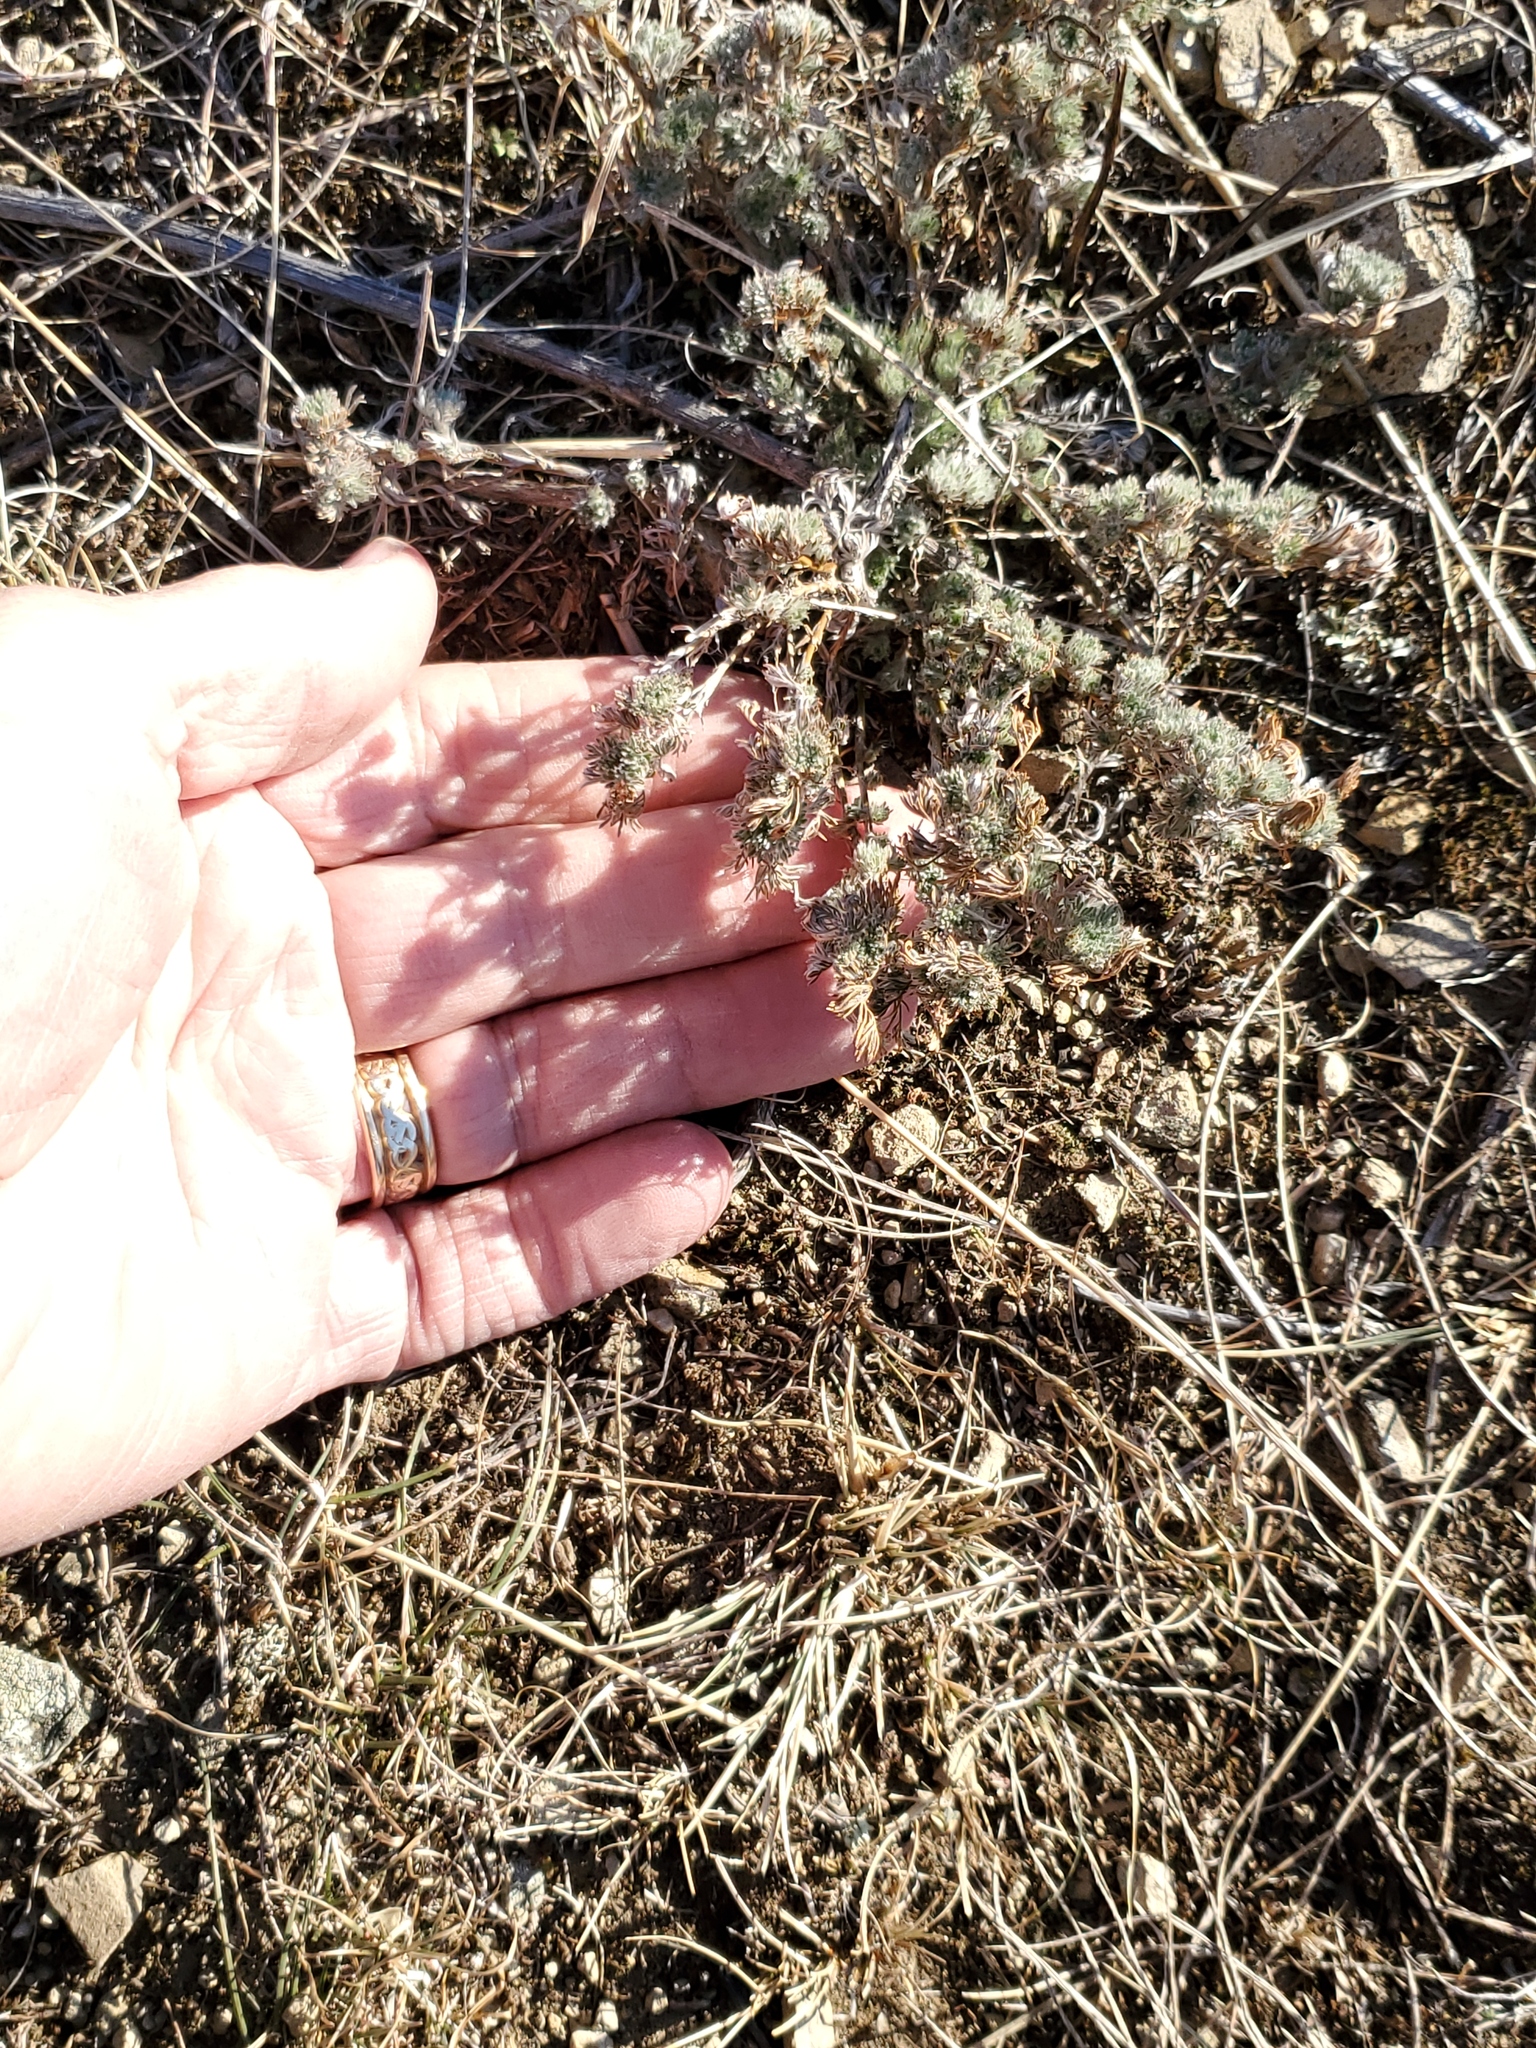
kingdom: Plantae
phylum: Tracheophyta
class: Magnoliopsida
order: Asterales
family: Asteraceae
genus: Artemisia
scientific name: Artemisia frigida
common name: Prairie sagewort
